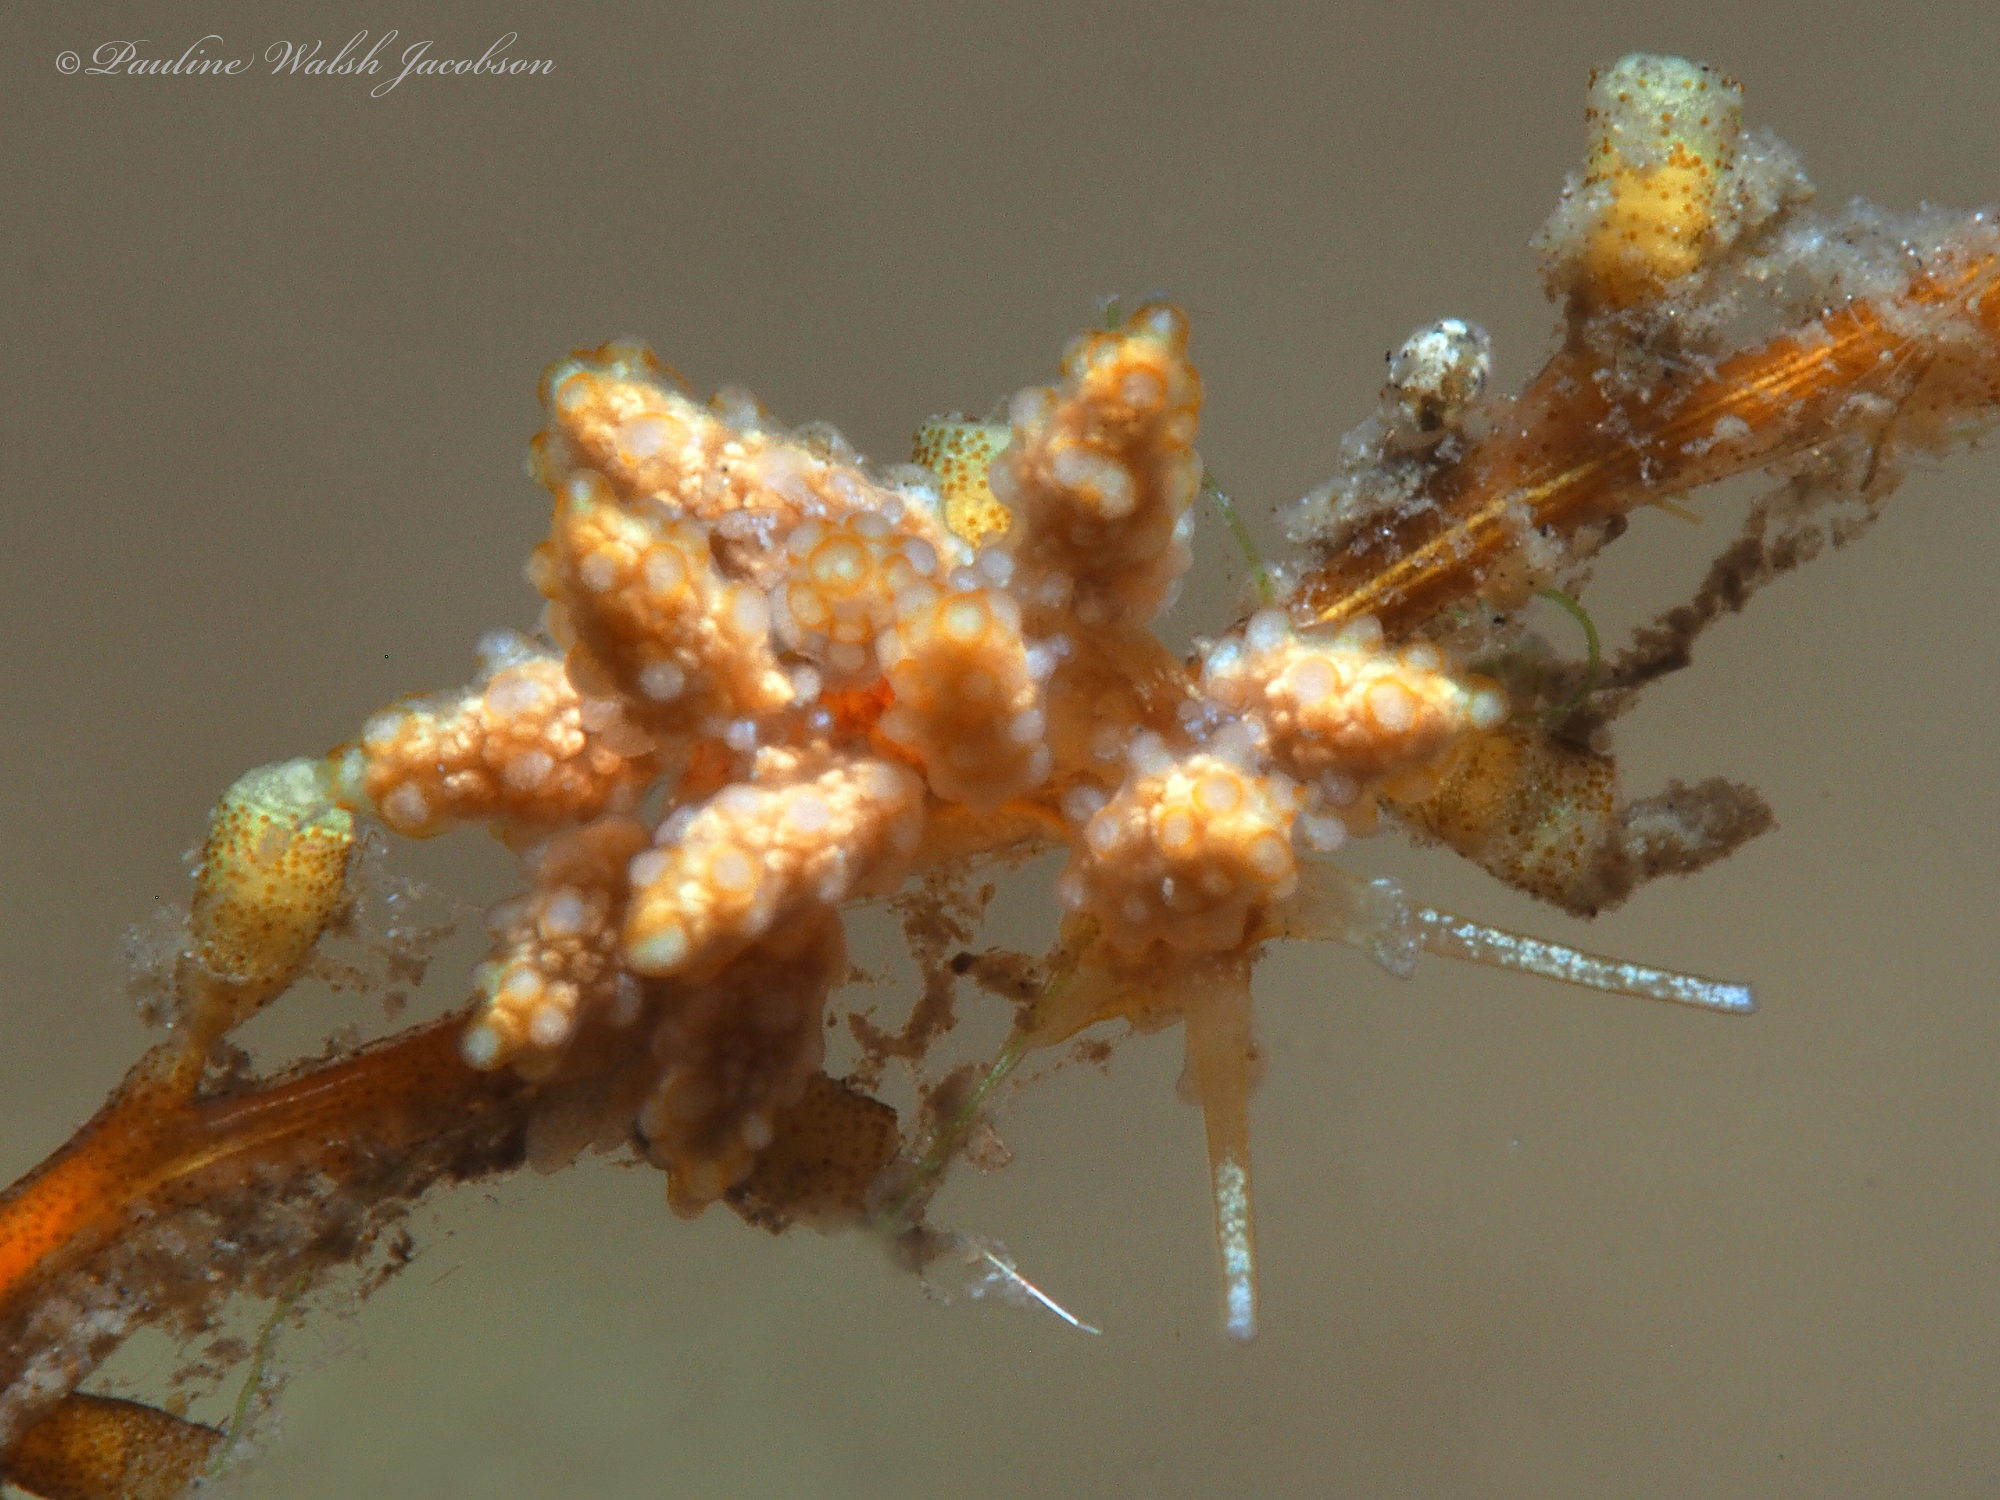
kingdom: Animalia
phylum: Mollusca
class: Gastropoda
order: Nudibranchia
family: Dotidae
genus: Doto
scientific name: Doto torrelavega
